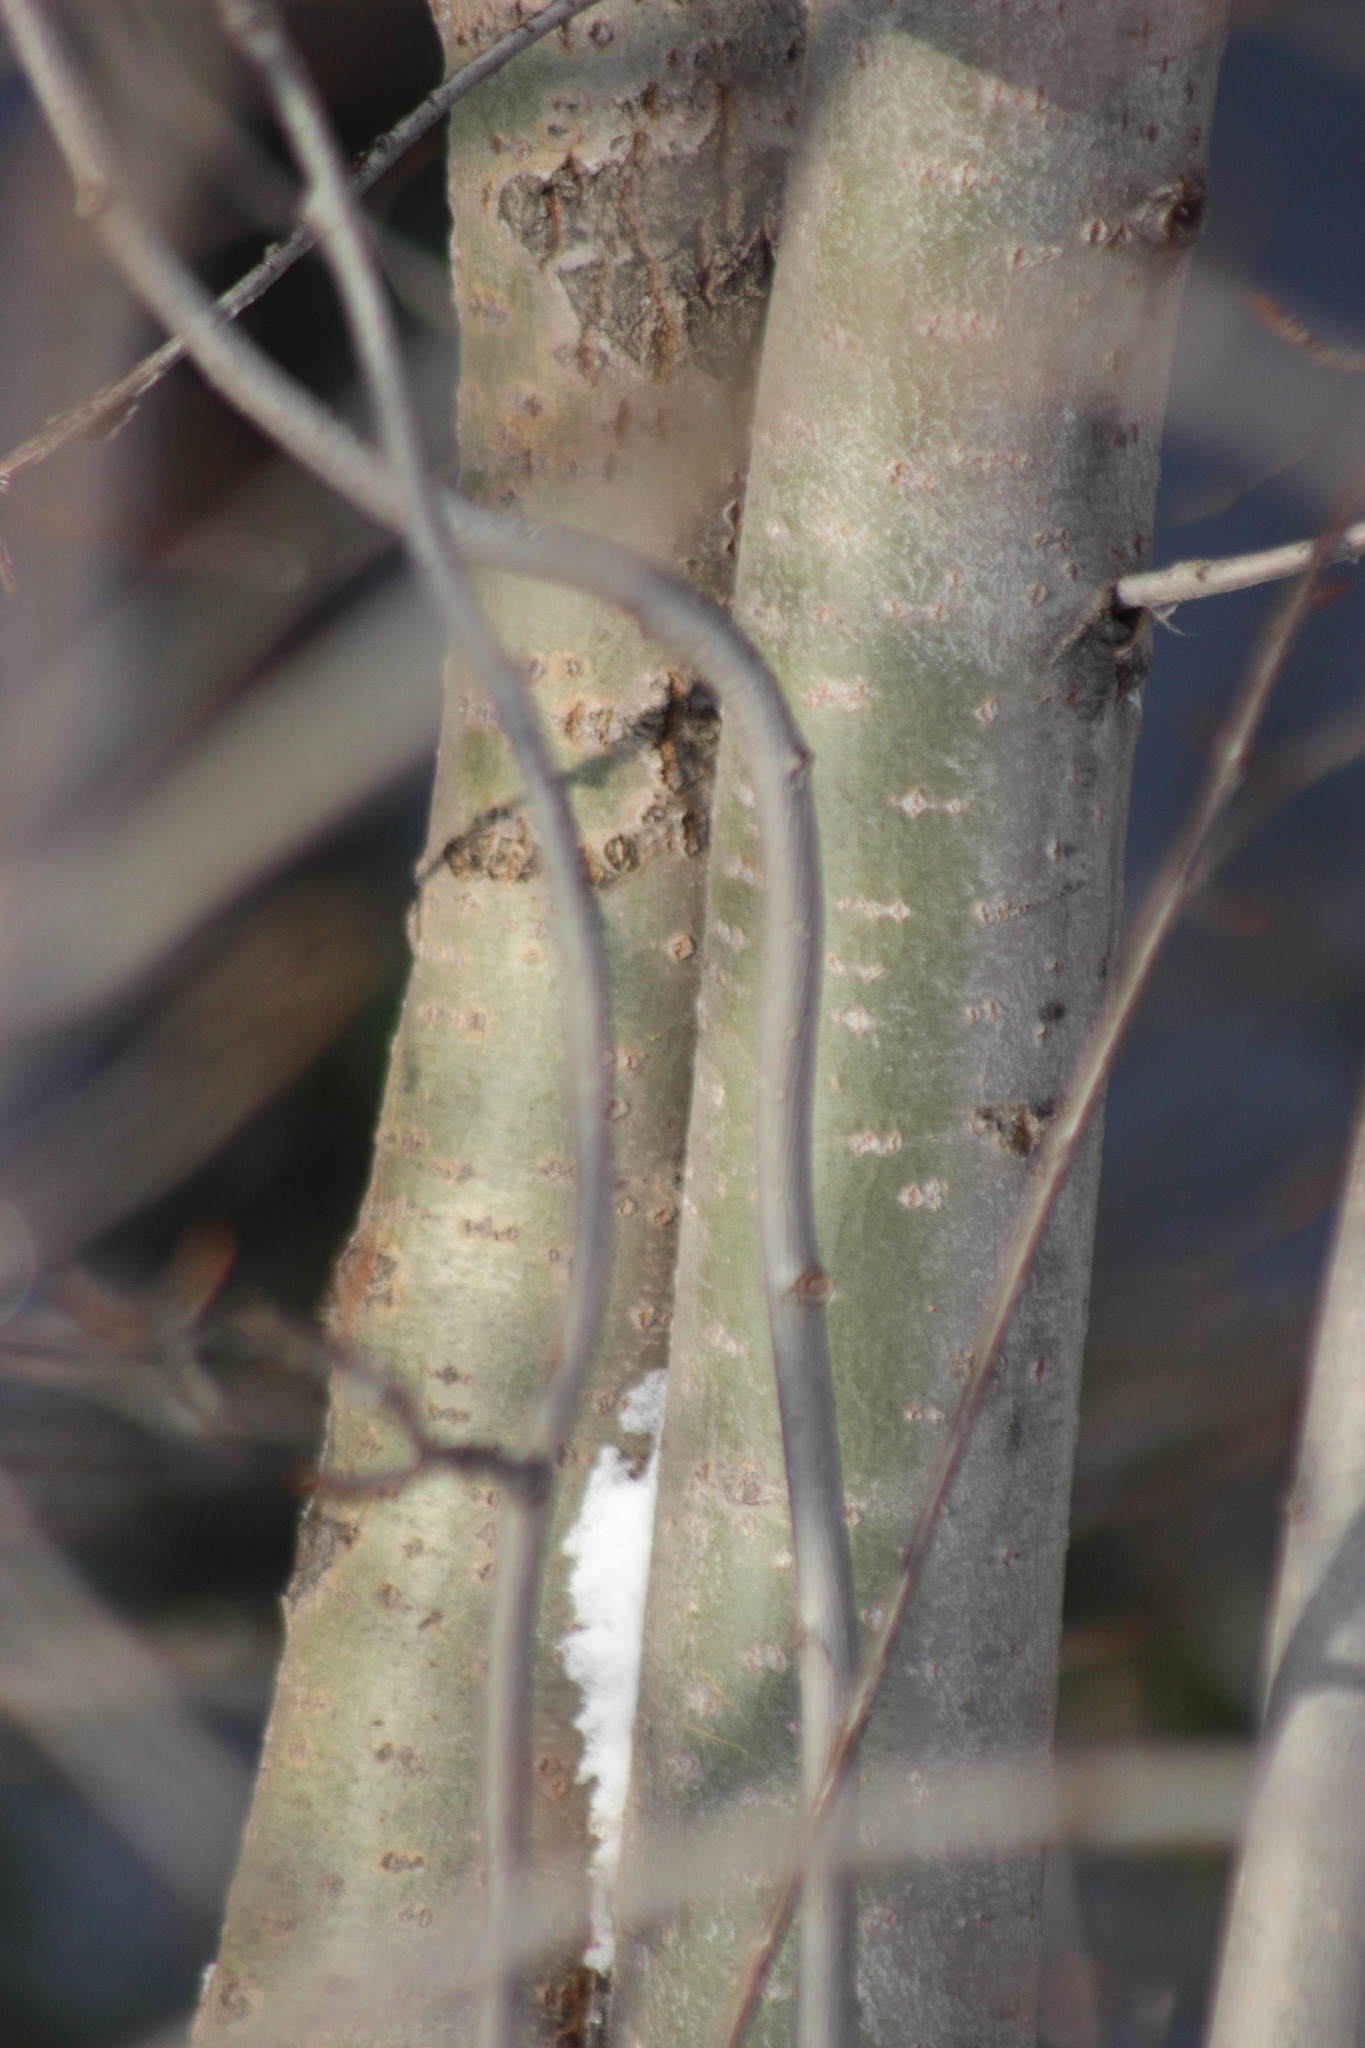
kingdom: Plantae
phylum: Tracheophyta
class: Magnoliopsida
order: Malpighiales
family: Salicaceae
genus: Populus
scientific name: Populus tremula
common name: European aspen
